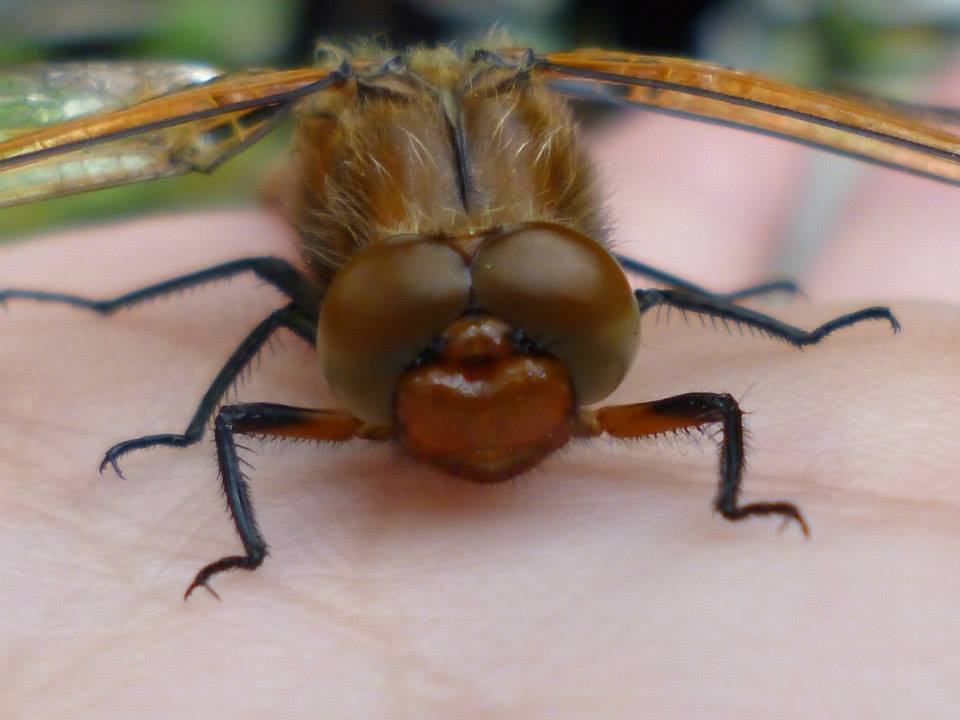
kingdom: Animalia
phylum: Arthropoda
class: Insecta
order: Odonata
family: Libellulidae
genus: Libellula
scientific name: Libellula fulva
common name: Blue chaser
